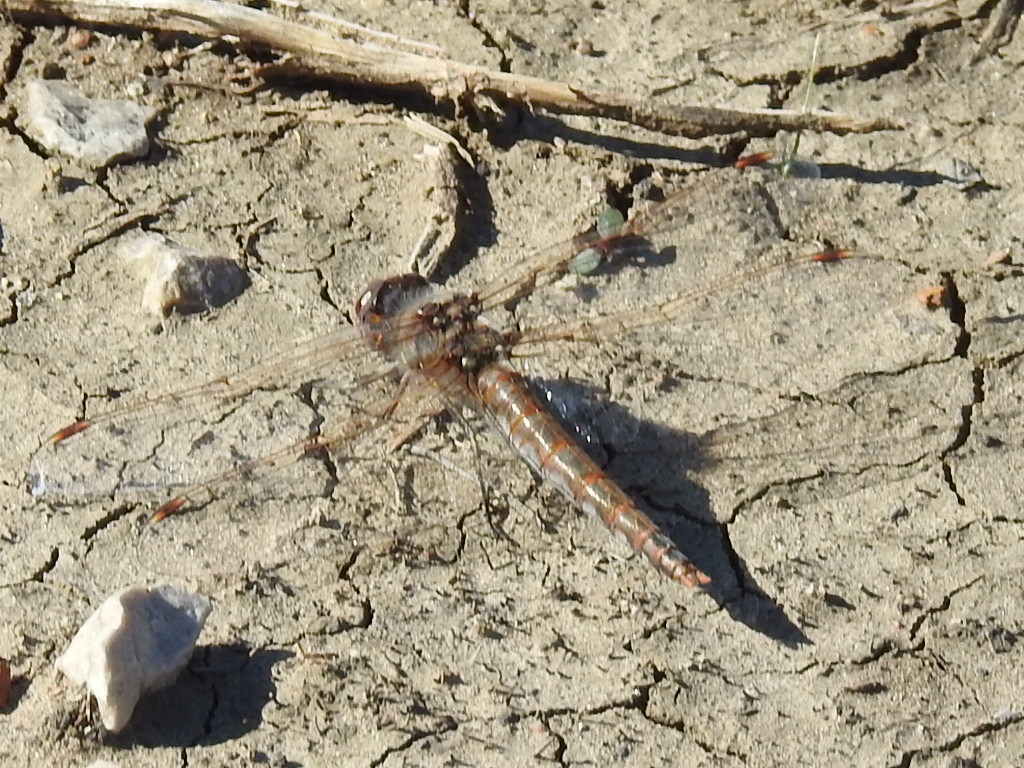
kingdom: Animalia
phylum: Arthropoda
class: Insecta
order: Odonata
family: Libellulidae
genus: Sympetrum
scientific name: Sympetrum corruptum
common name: Variegated meadowhawk
